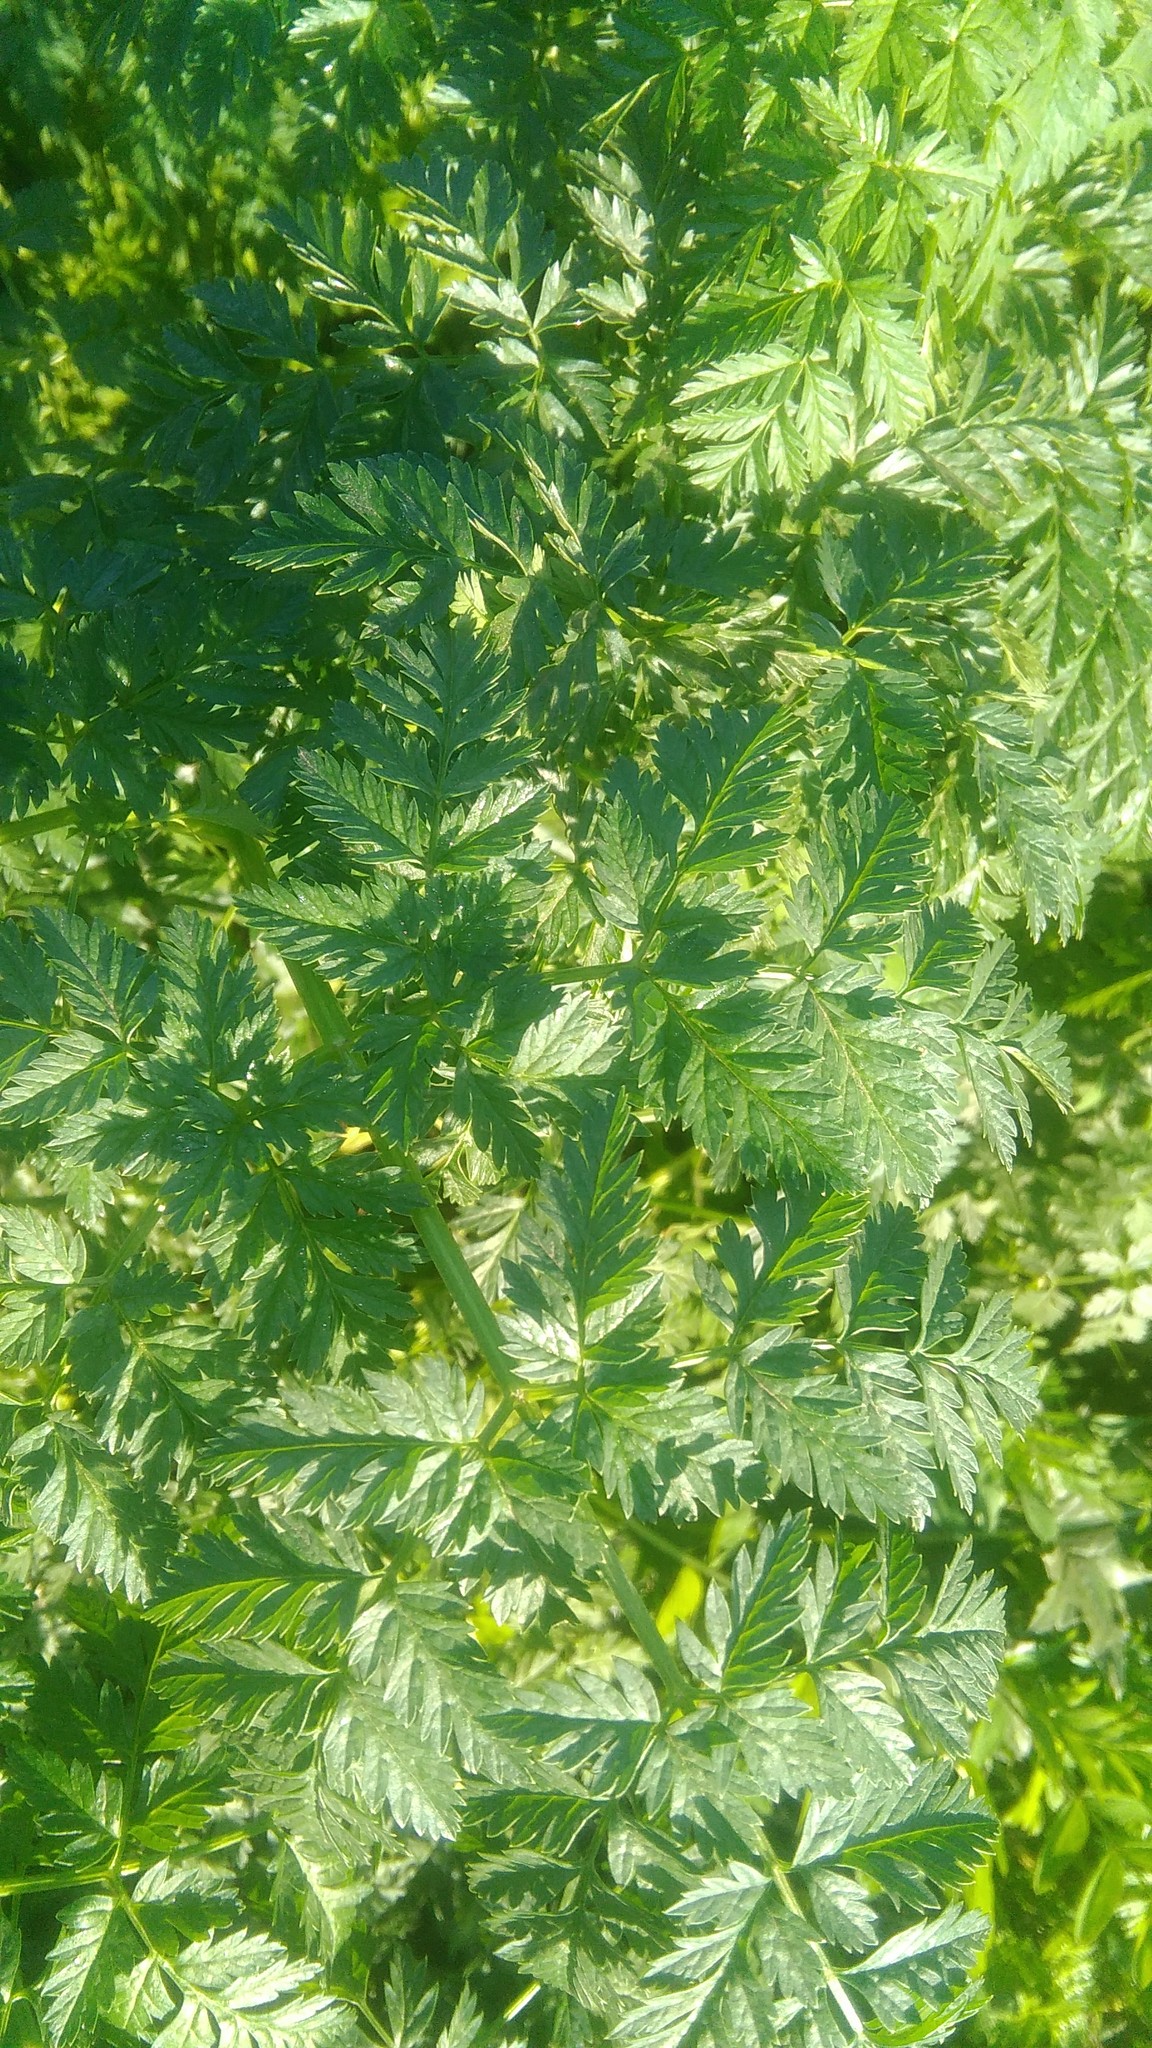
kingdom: Plantae
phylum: Tracheophyta
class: Magnoliopsida
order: Apiales
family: Apiaceae
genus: Conium
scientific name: Conium maculatum
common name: Hemlock
